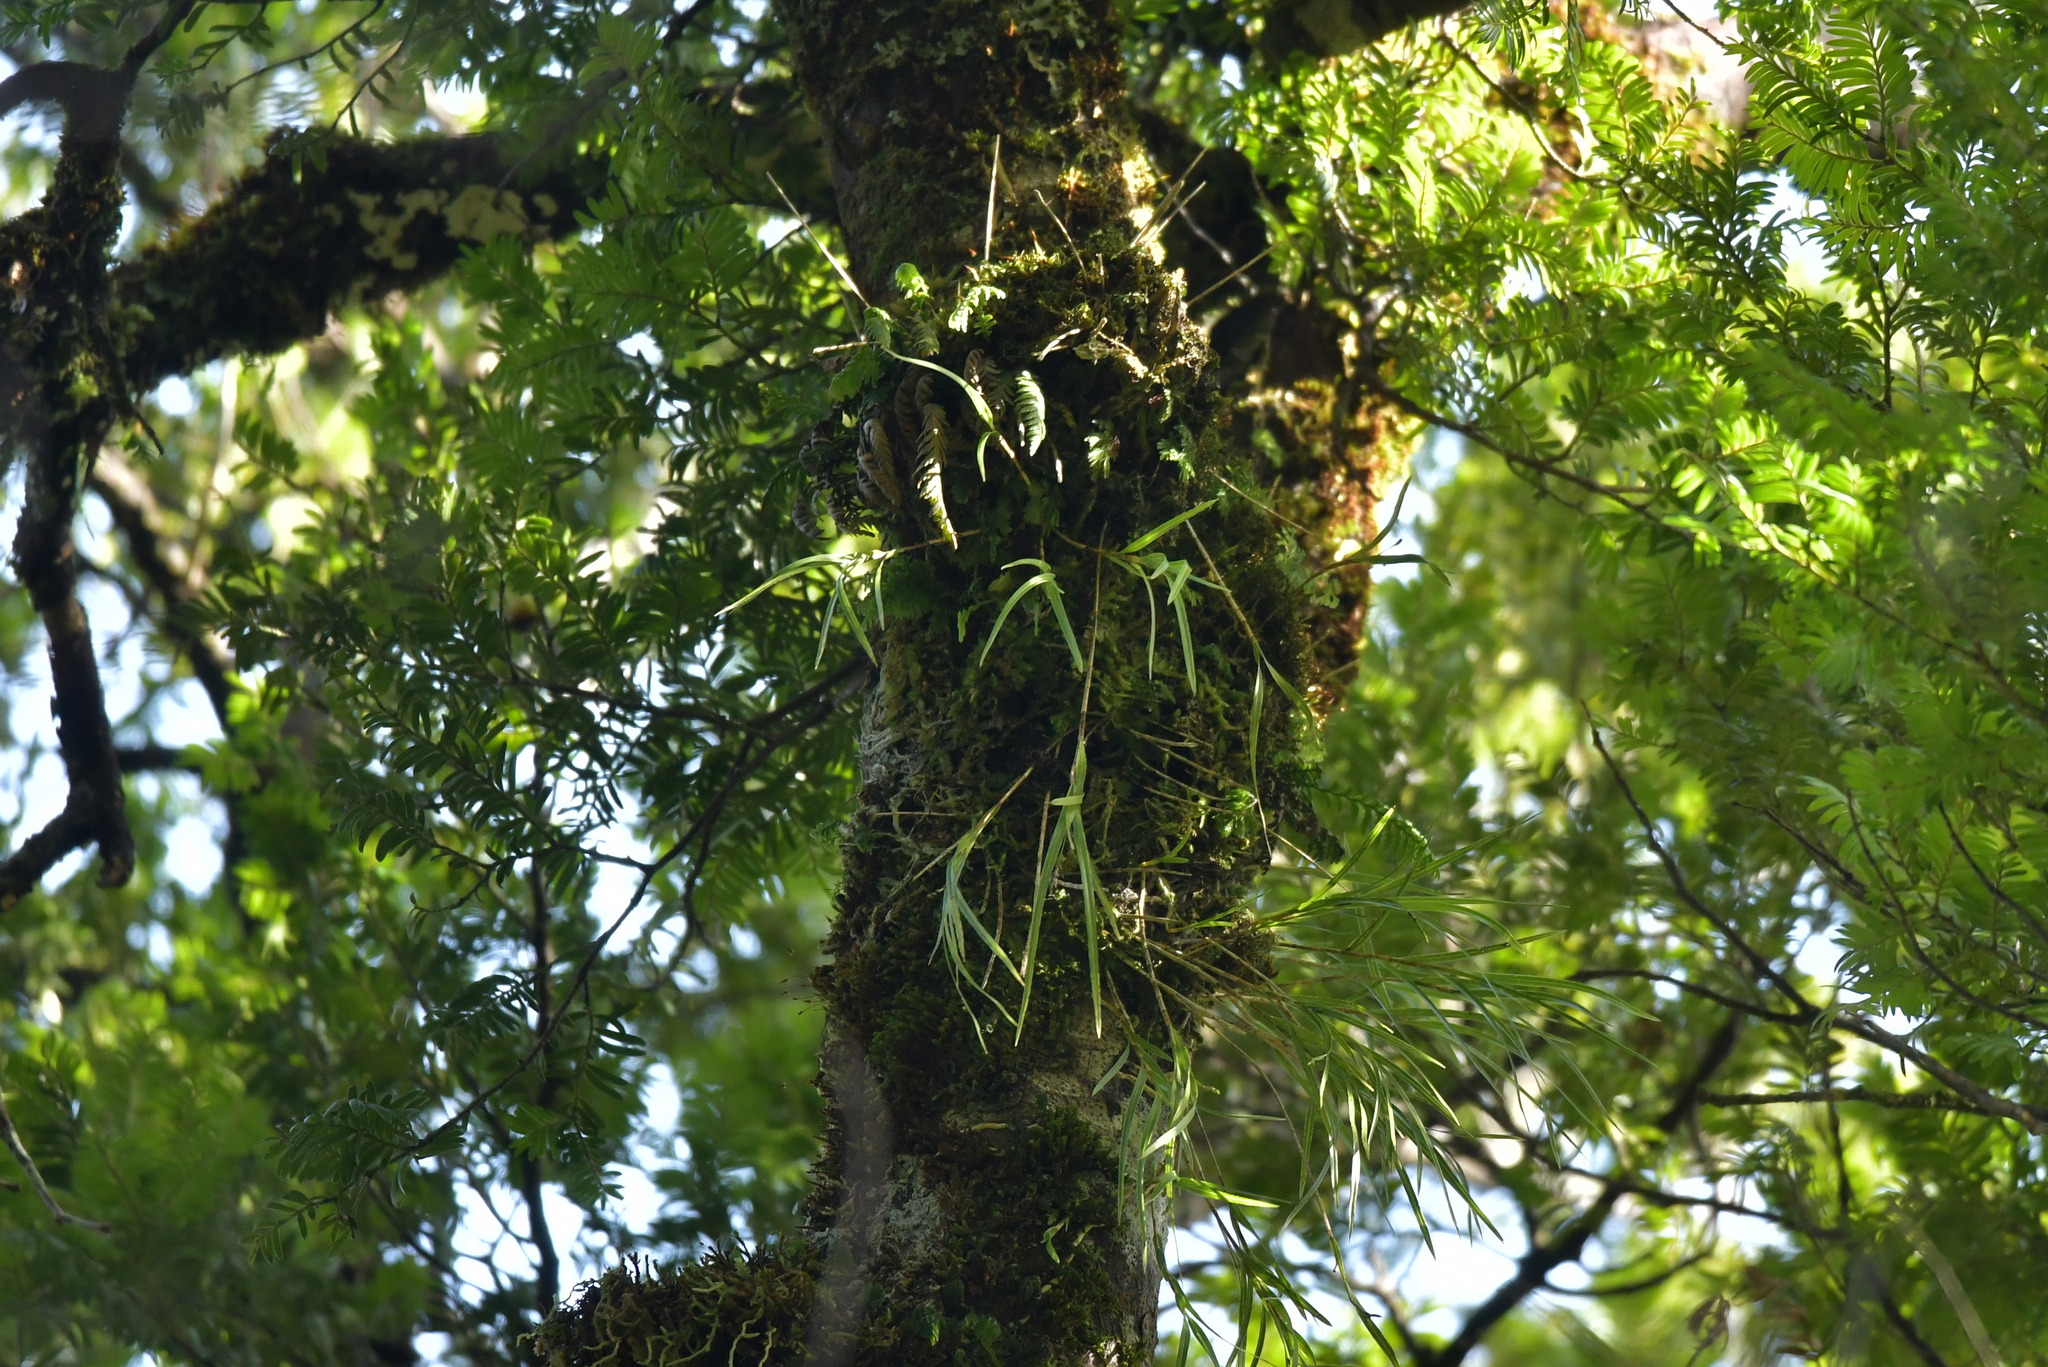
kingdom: Plantae
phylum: Tracheophyta
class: Liliopsida
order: Asparagales
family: Orchidaceae
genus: Earina
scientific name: Earina mucronata
